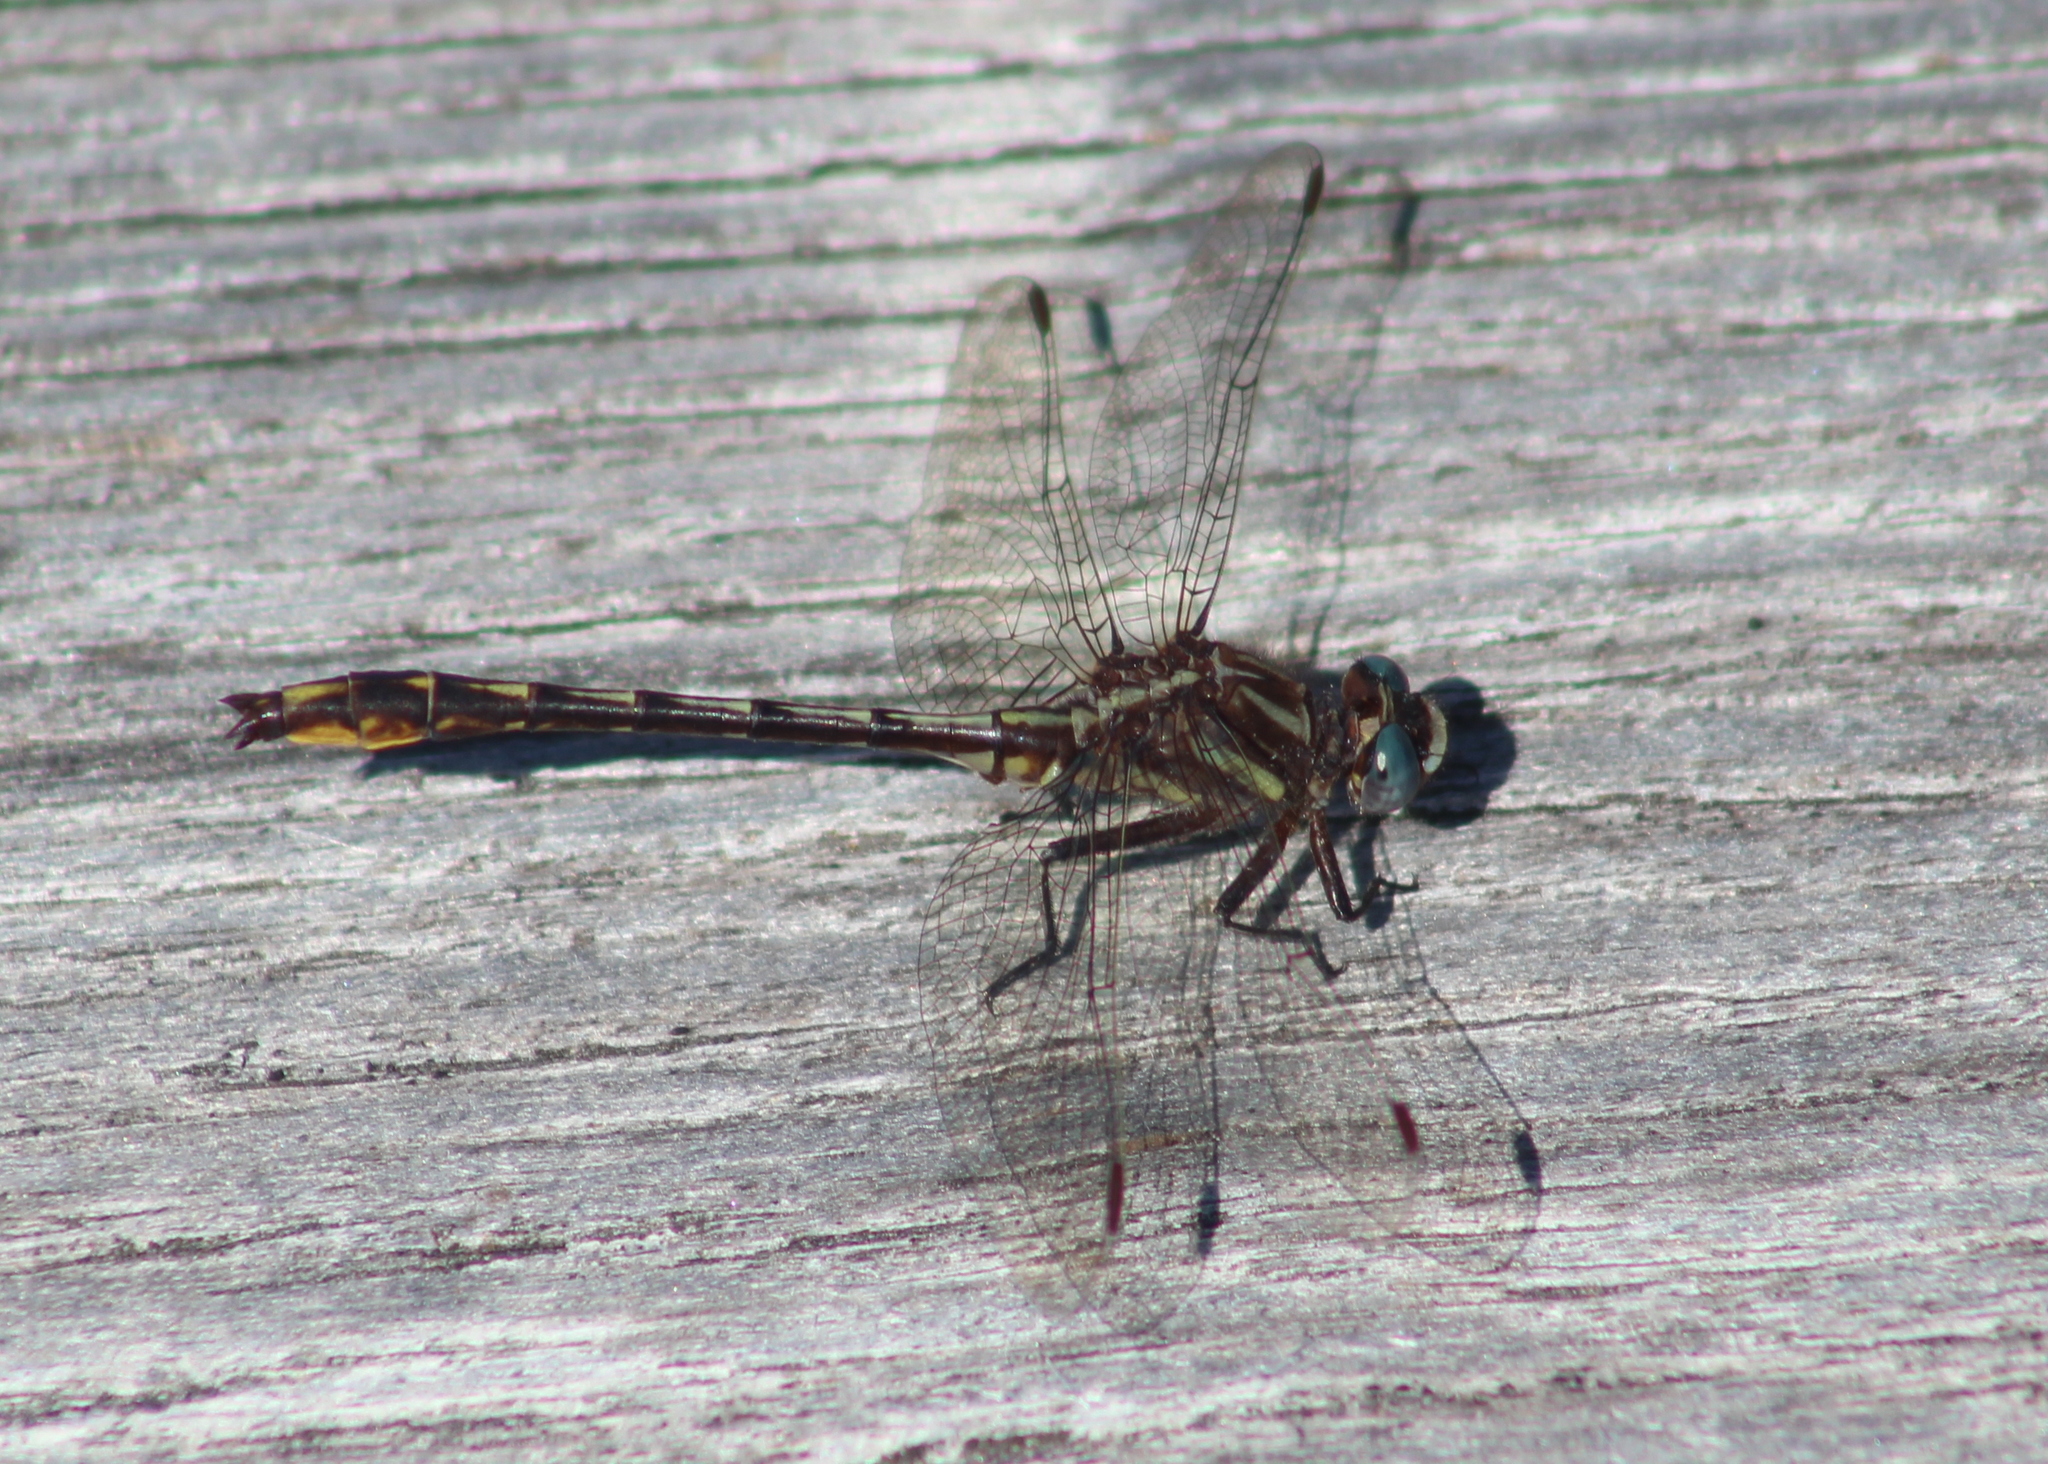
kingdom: Animalia
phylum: Arthropoda
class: Insecta
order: Odonata
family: Gomphidae
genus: Phanogomphus
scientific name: Phanogomphus exilis
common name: Lancet clubtail
